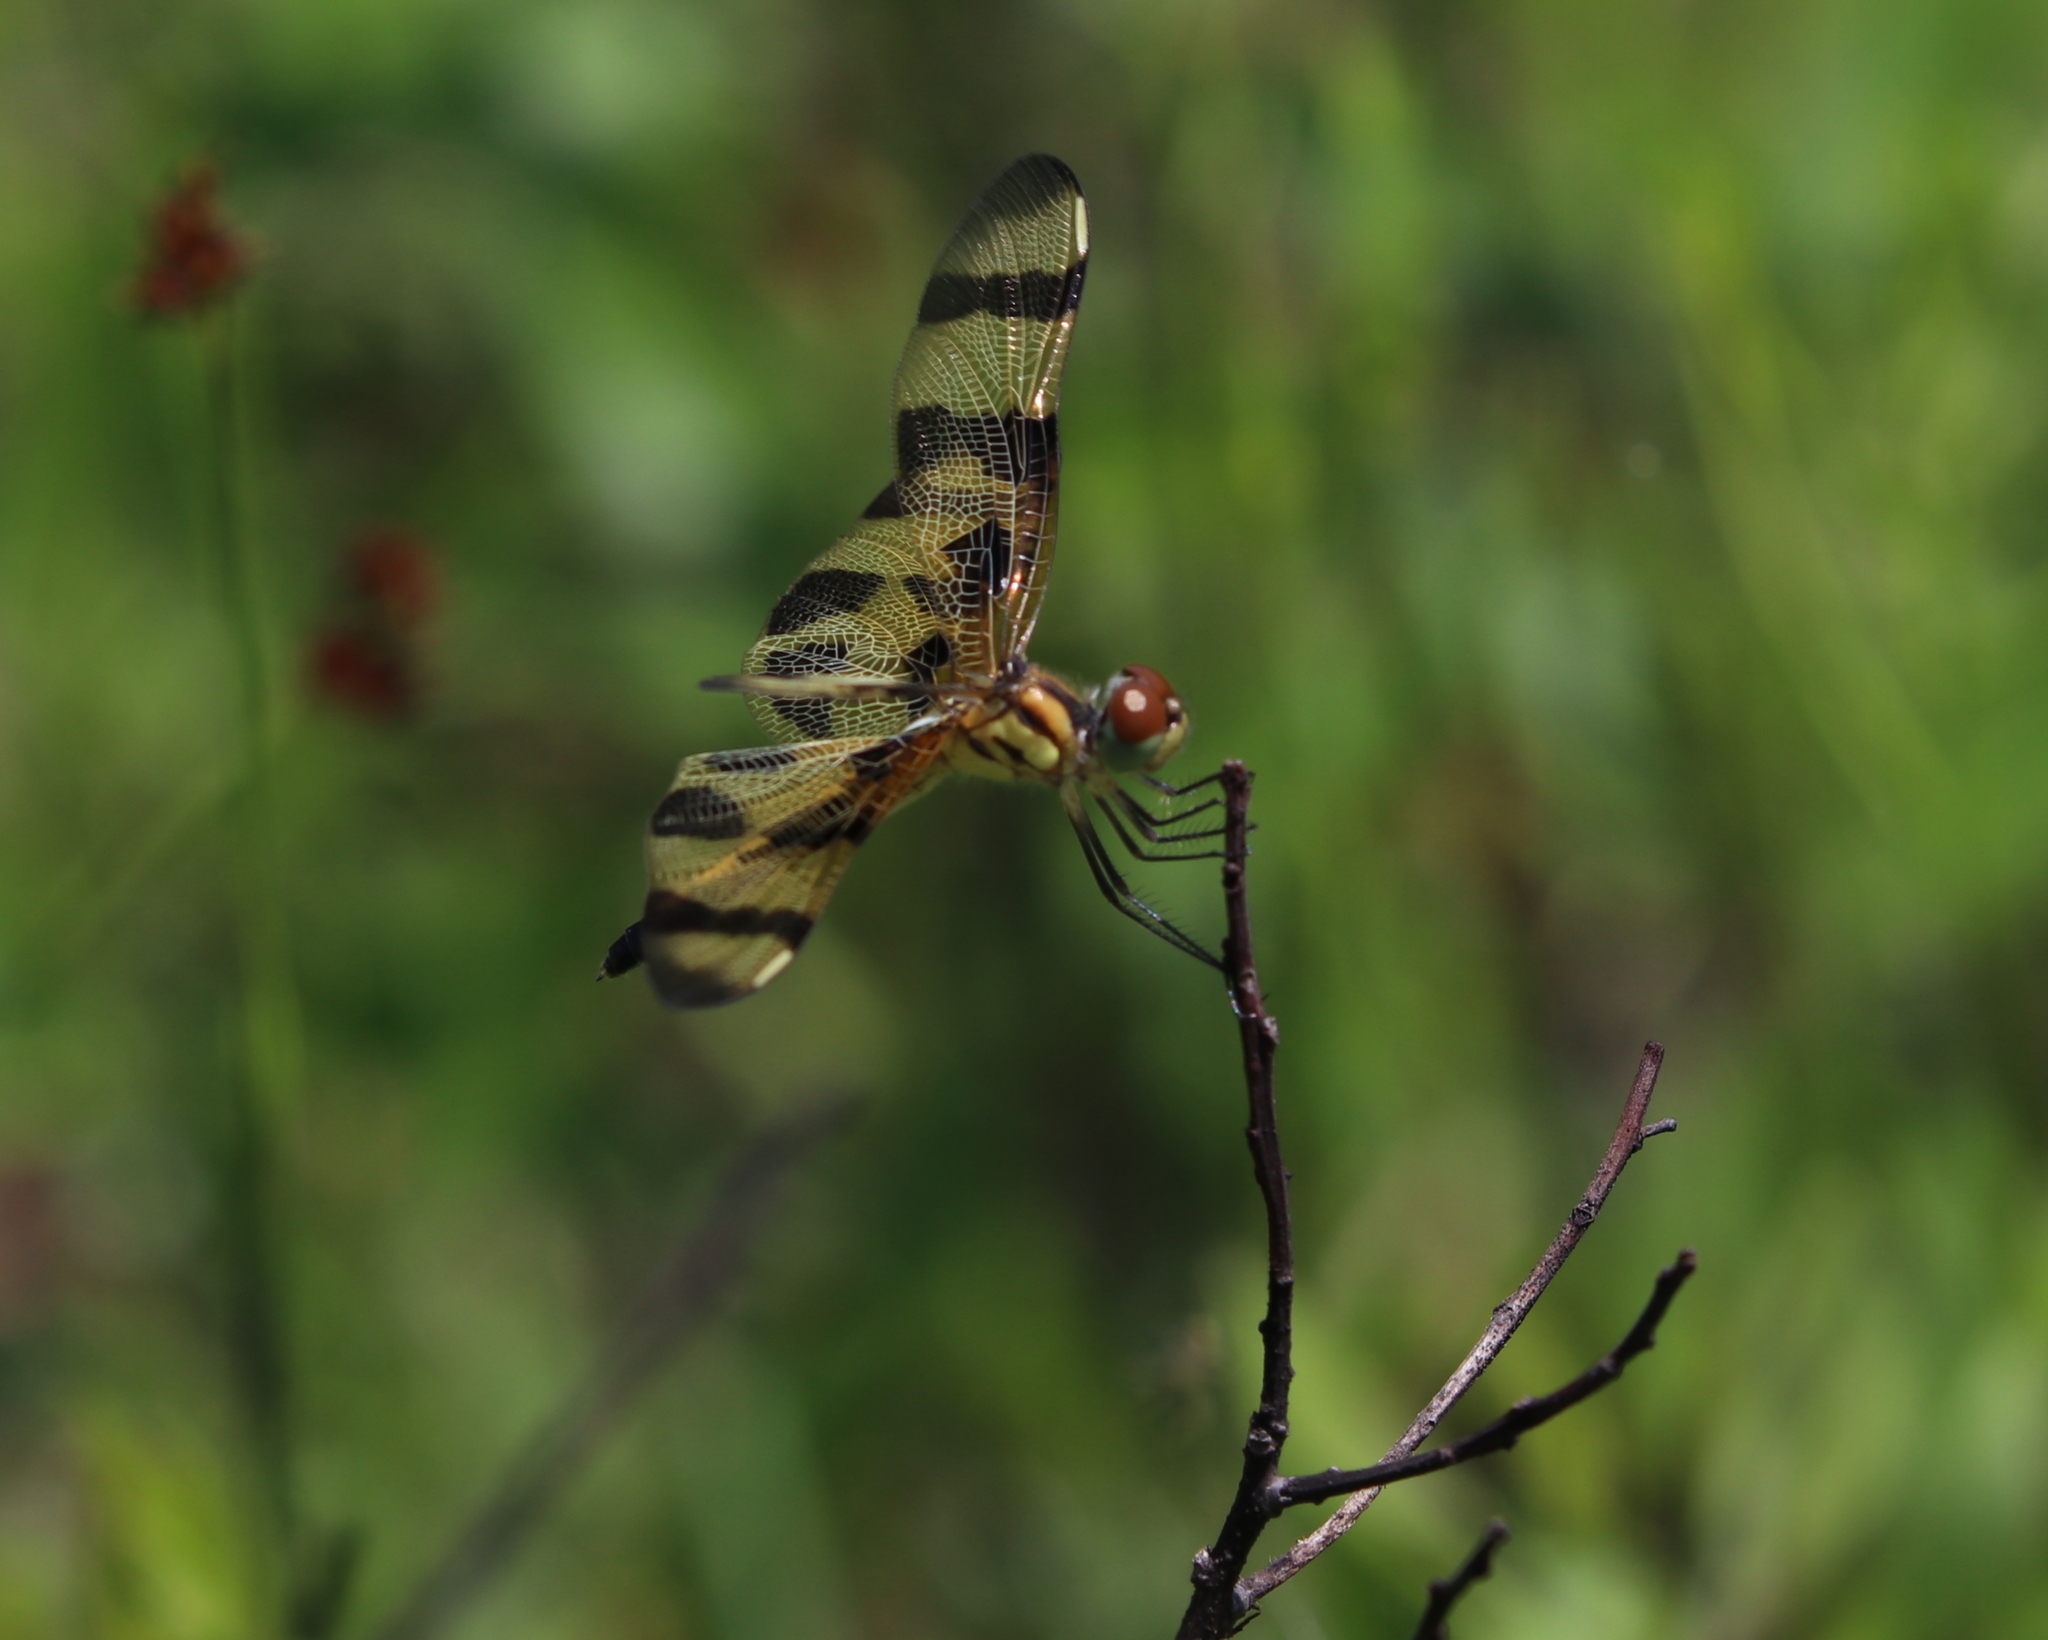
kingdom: Animalia
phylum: Arthropoda
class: Insecta
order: Odonata
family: Libellulidae
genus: Celithemis
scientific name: Celithemis eponina
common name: Halloween pennant
